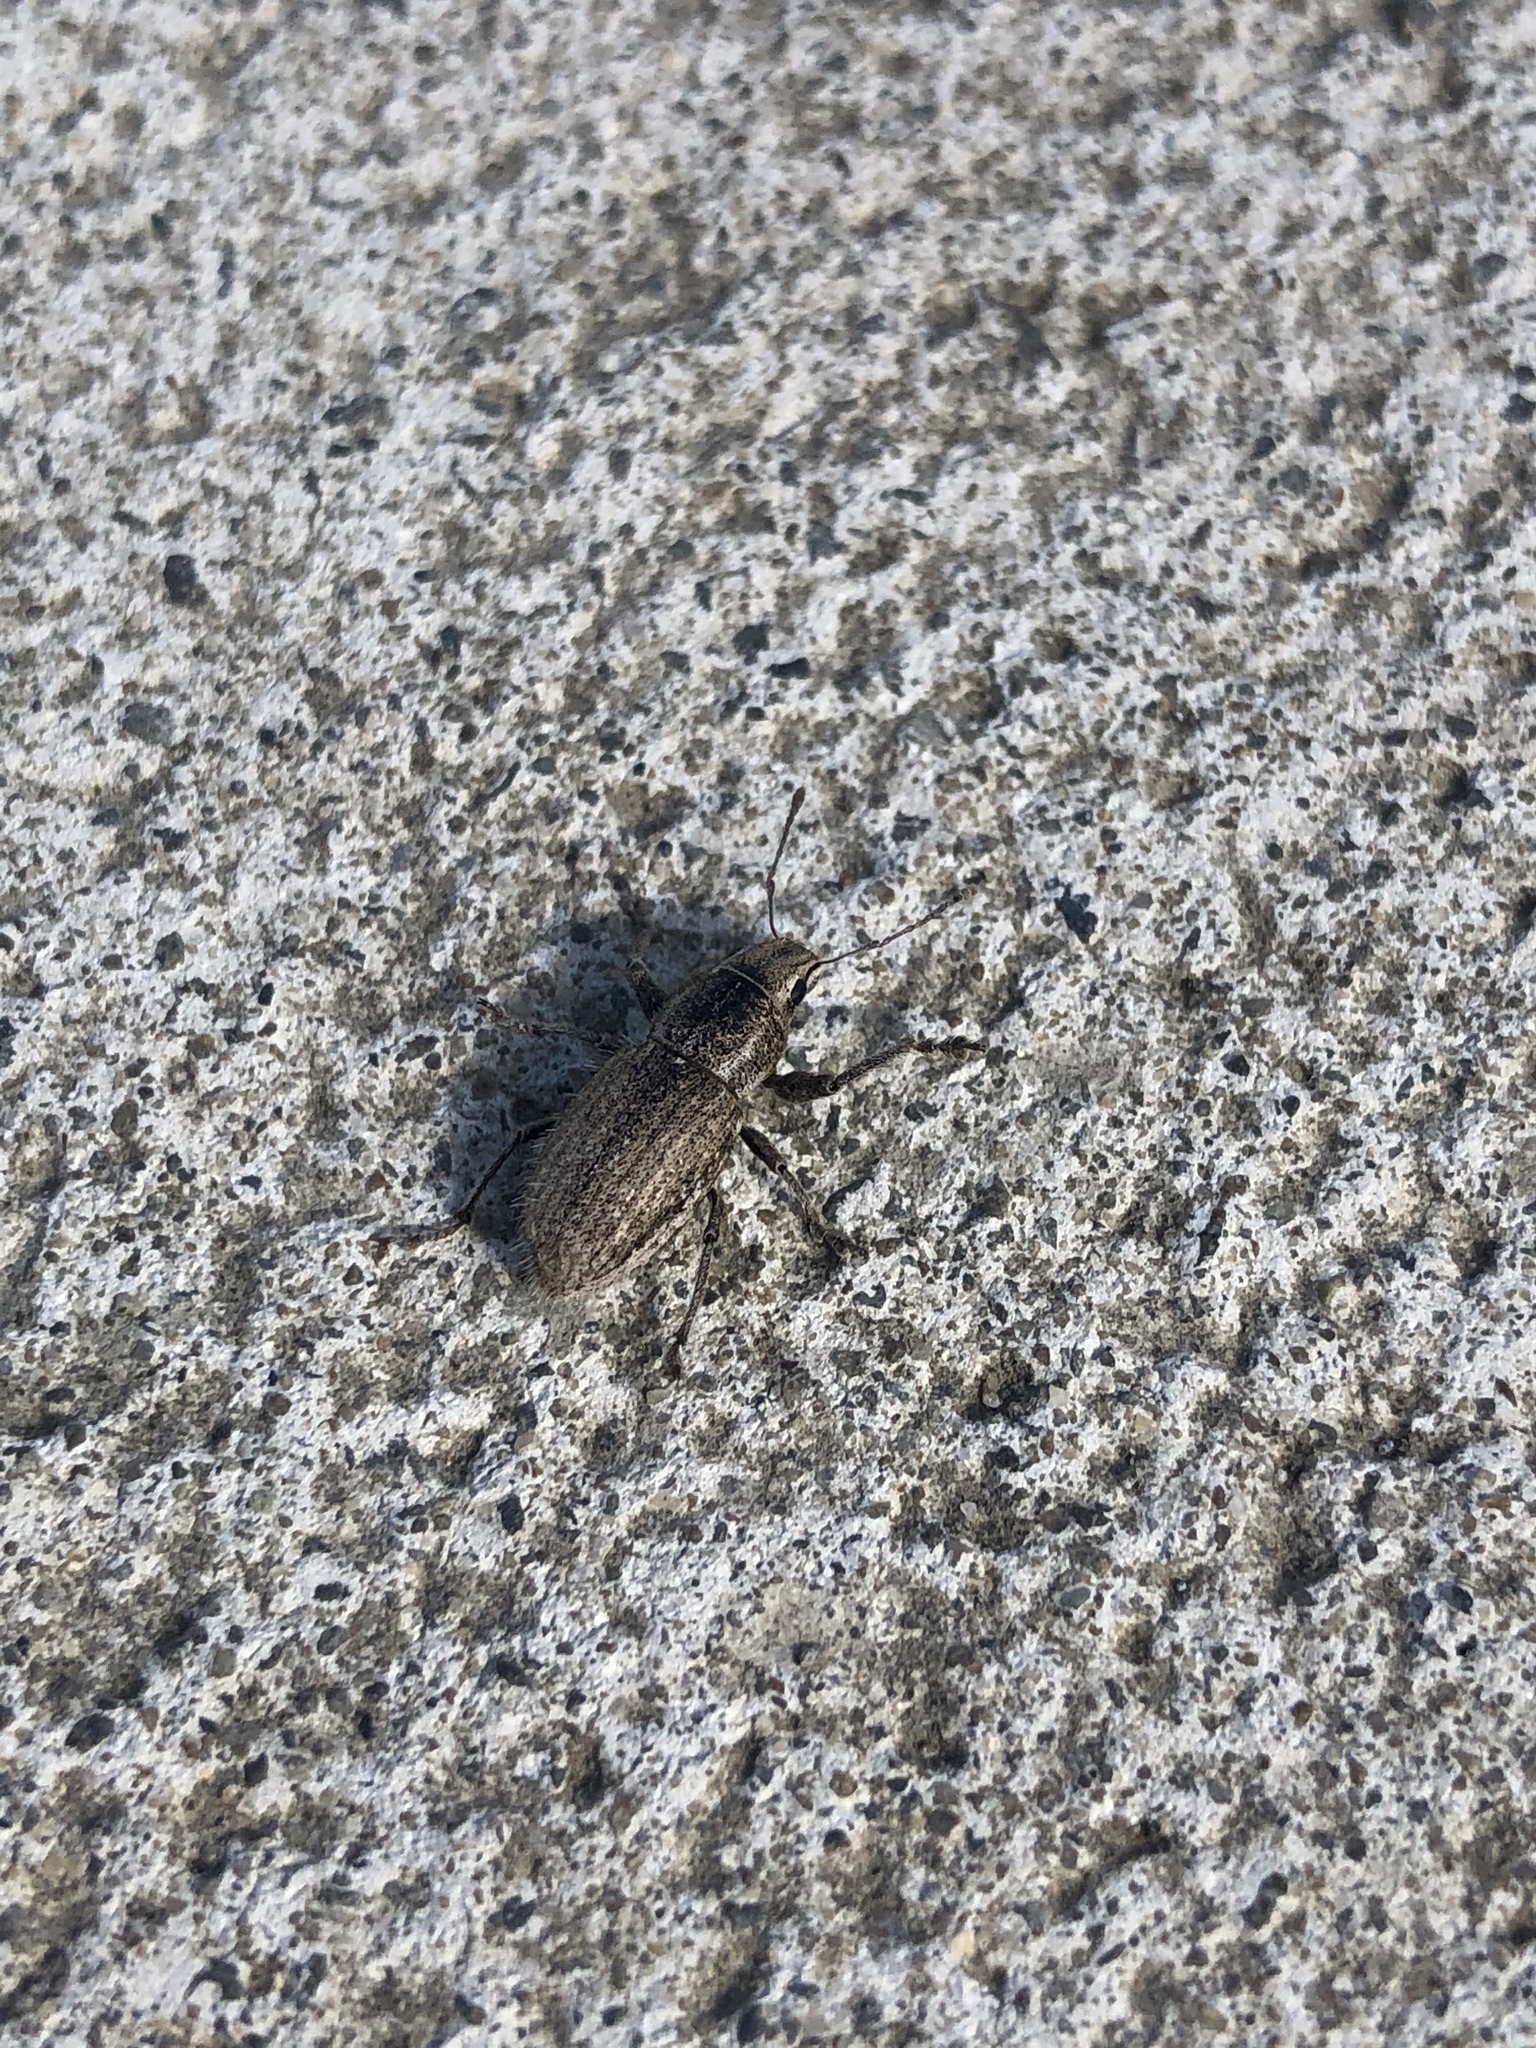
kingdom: Animalia
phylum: Arthropoda
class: Insecta
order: Coleoptera
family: Curculionidae
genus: Naupactus
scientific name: Naupactus leucoloma
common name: Whitefringed beetle
